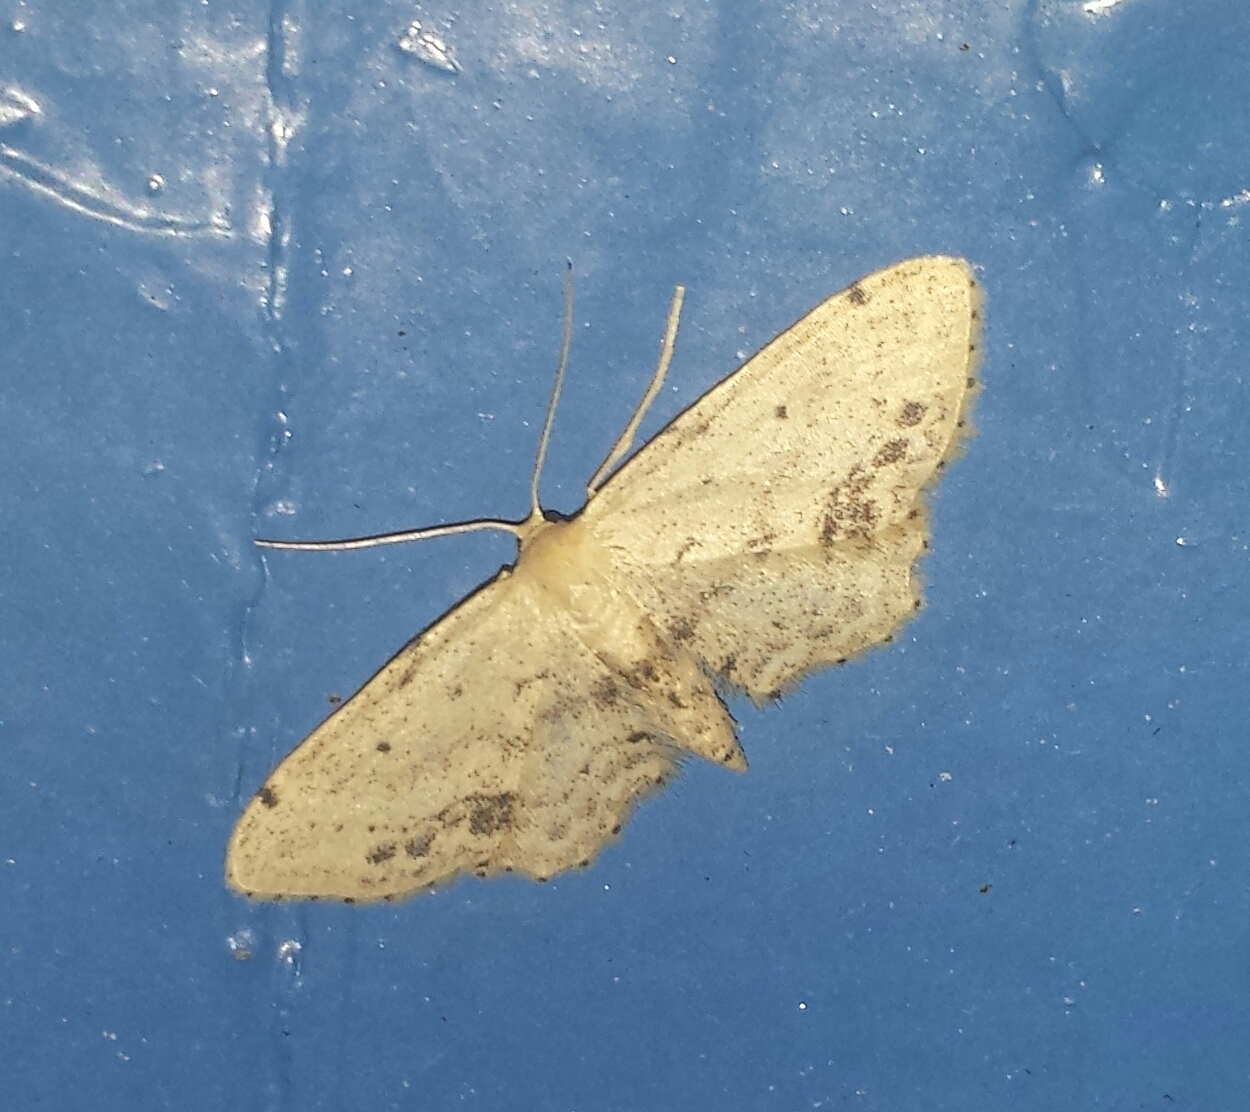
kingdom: Animalia
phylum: Arthropoda
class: Insecta
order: Lepidoptera
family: Geometridae
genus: Idaea
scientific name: Idaea dimidiata
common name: Single-dotted wave
